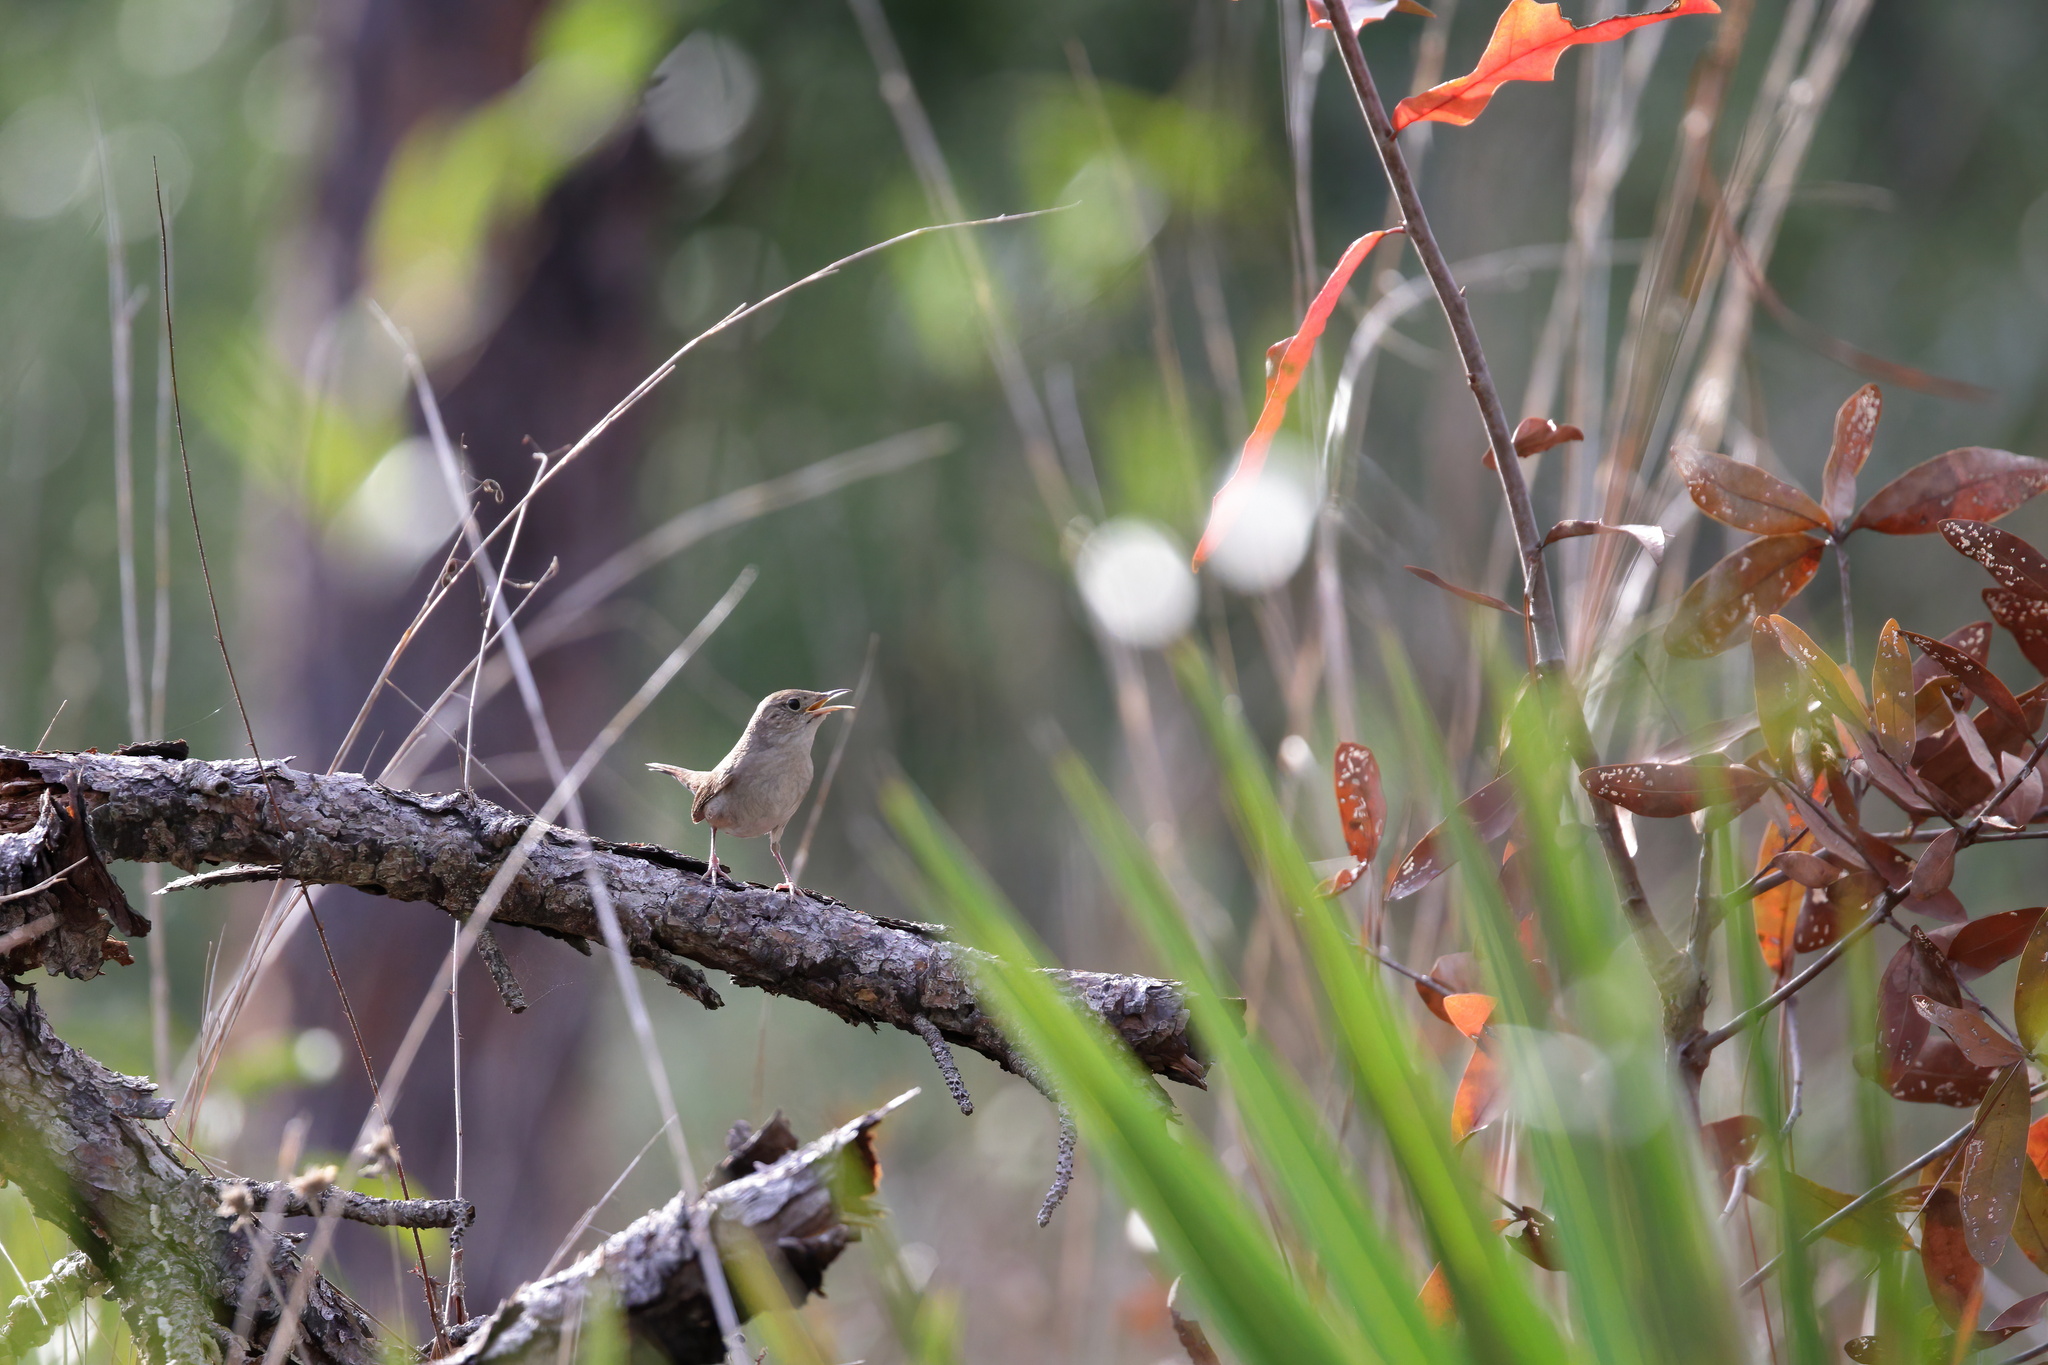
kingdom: Animalia
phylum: Chordata
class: Aves
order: Passeriformes
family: Troglodytidae
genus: Troglodytes
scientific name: Troglodytes aedon
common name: House wren
